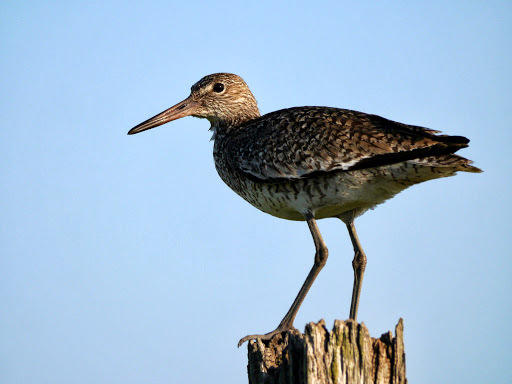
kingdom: Animalia
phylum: Chordata
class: Aves
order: Charadriiformes
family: Scolopacidae
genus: Tringa
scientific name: Tringa semipalmata
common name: Willet
